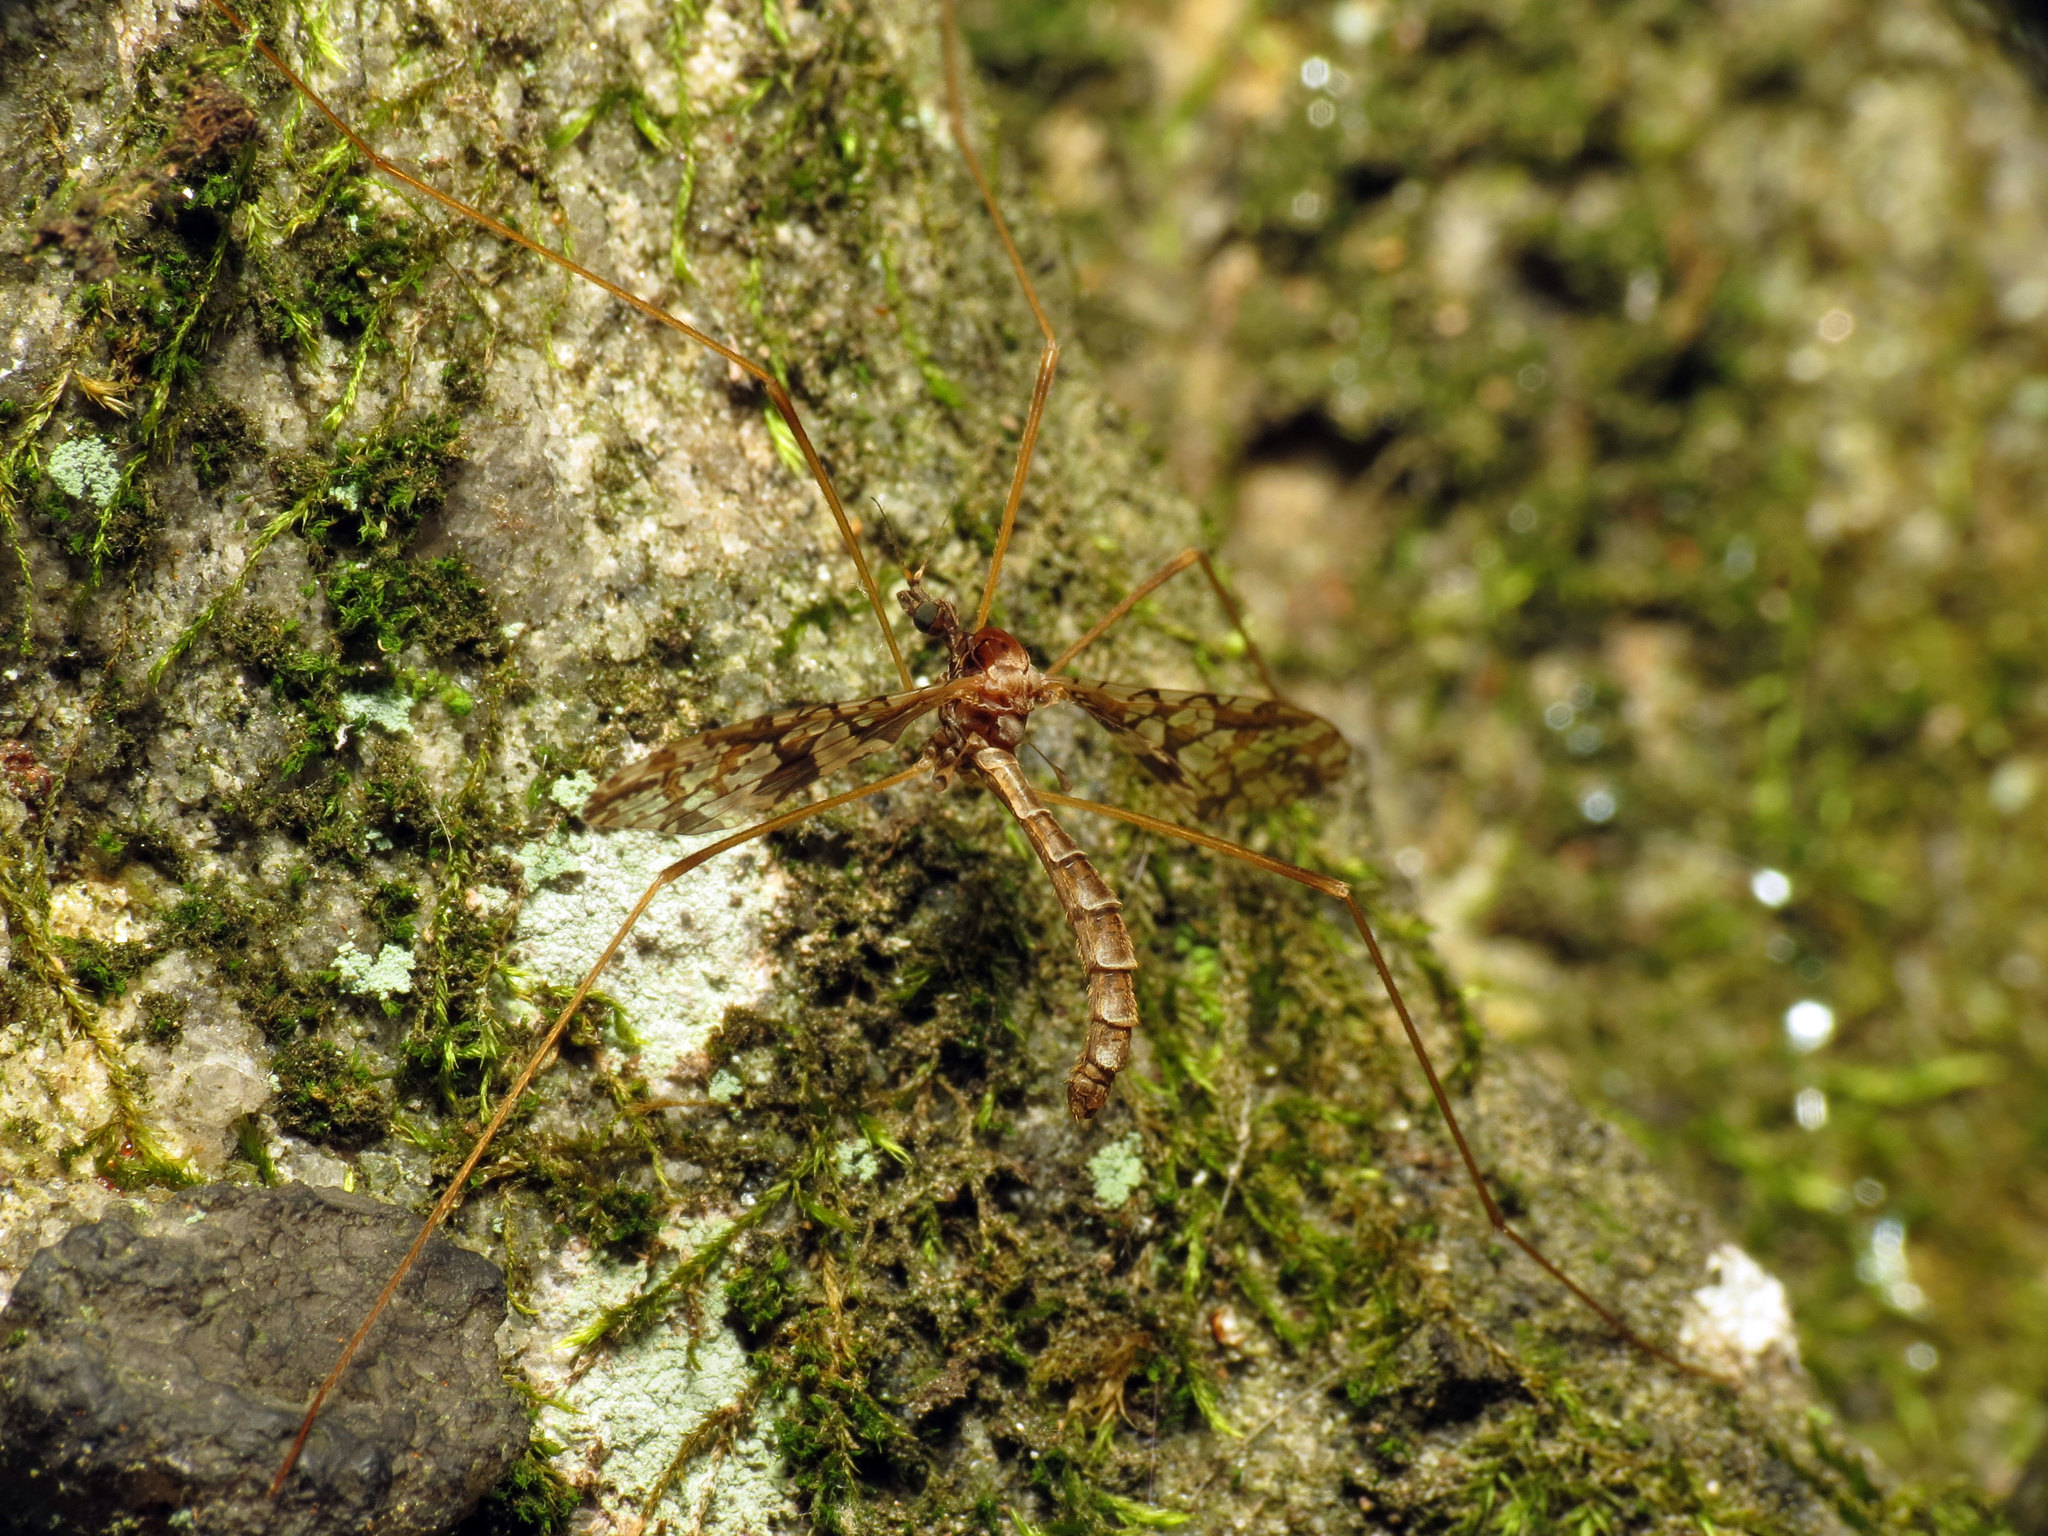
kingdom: Animalia
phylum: Arthropoda
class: Insecta
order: Diptera
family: Limoniidae
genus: Epiphragma
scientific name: Epiphragma solatrix
